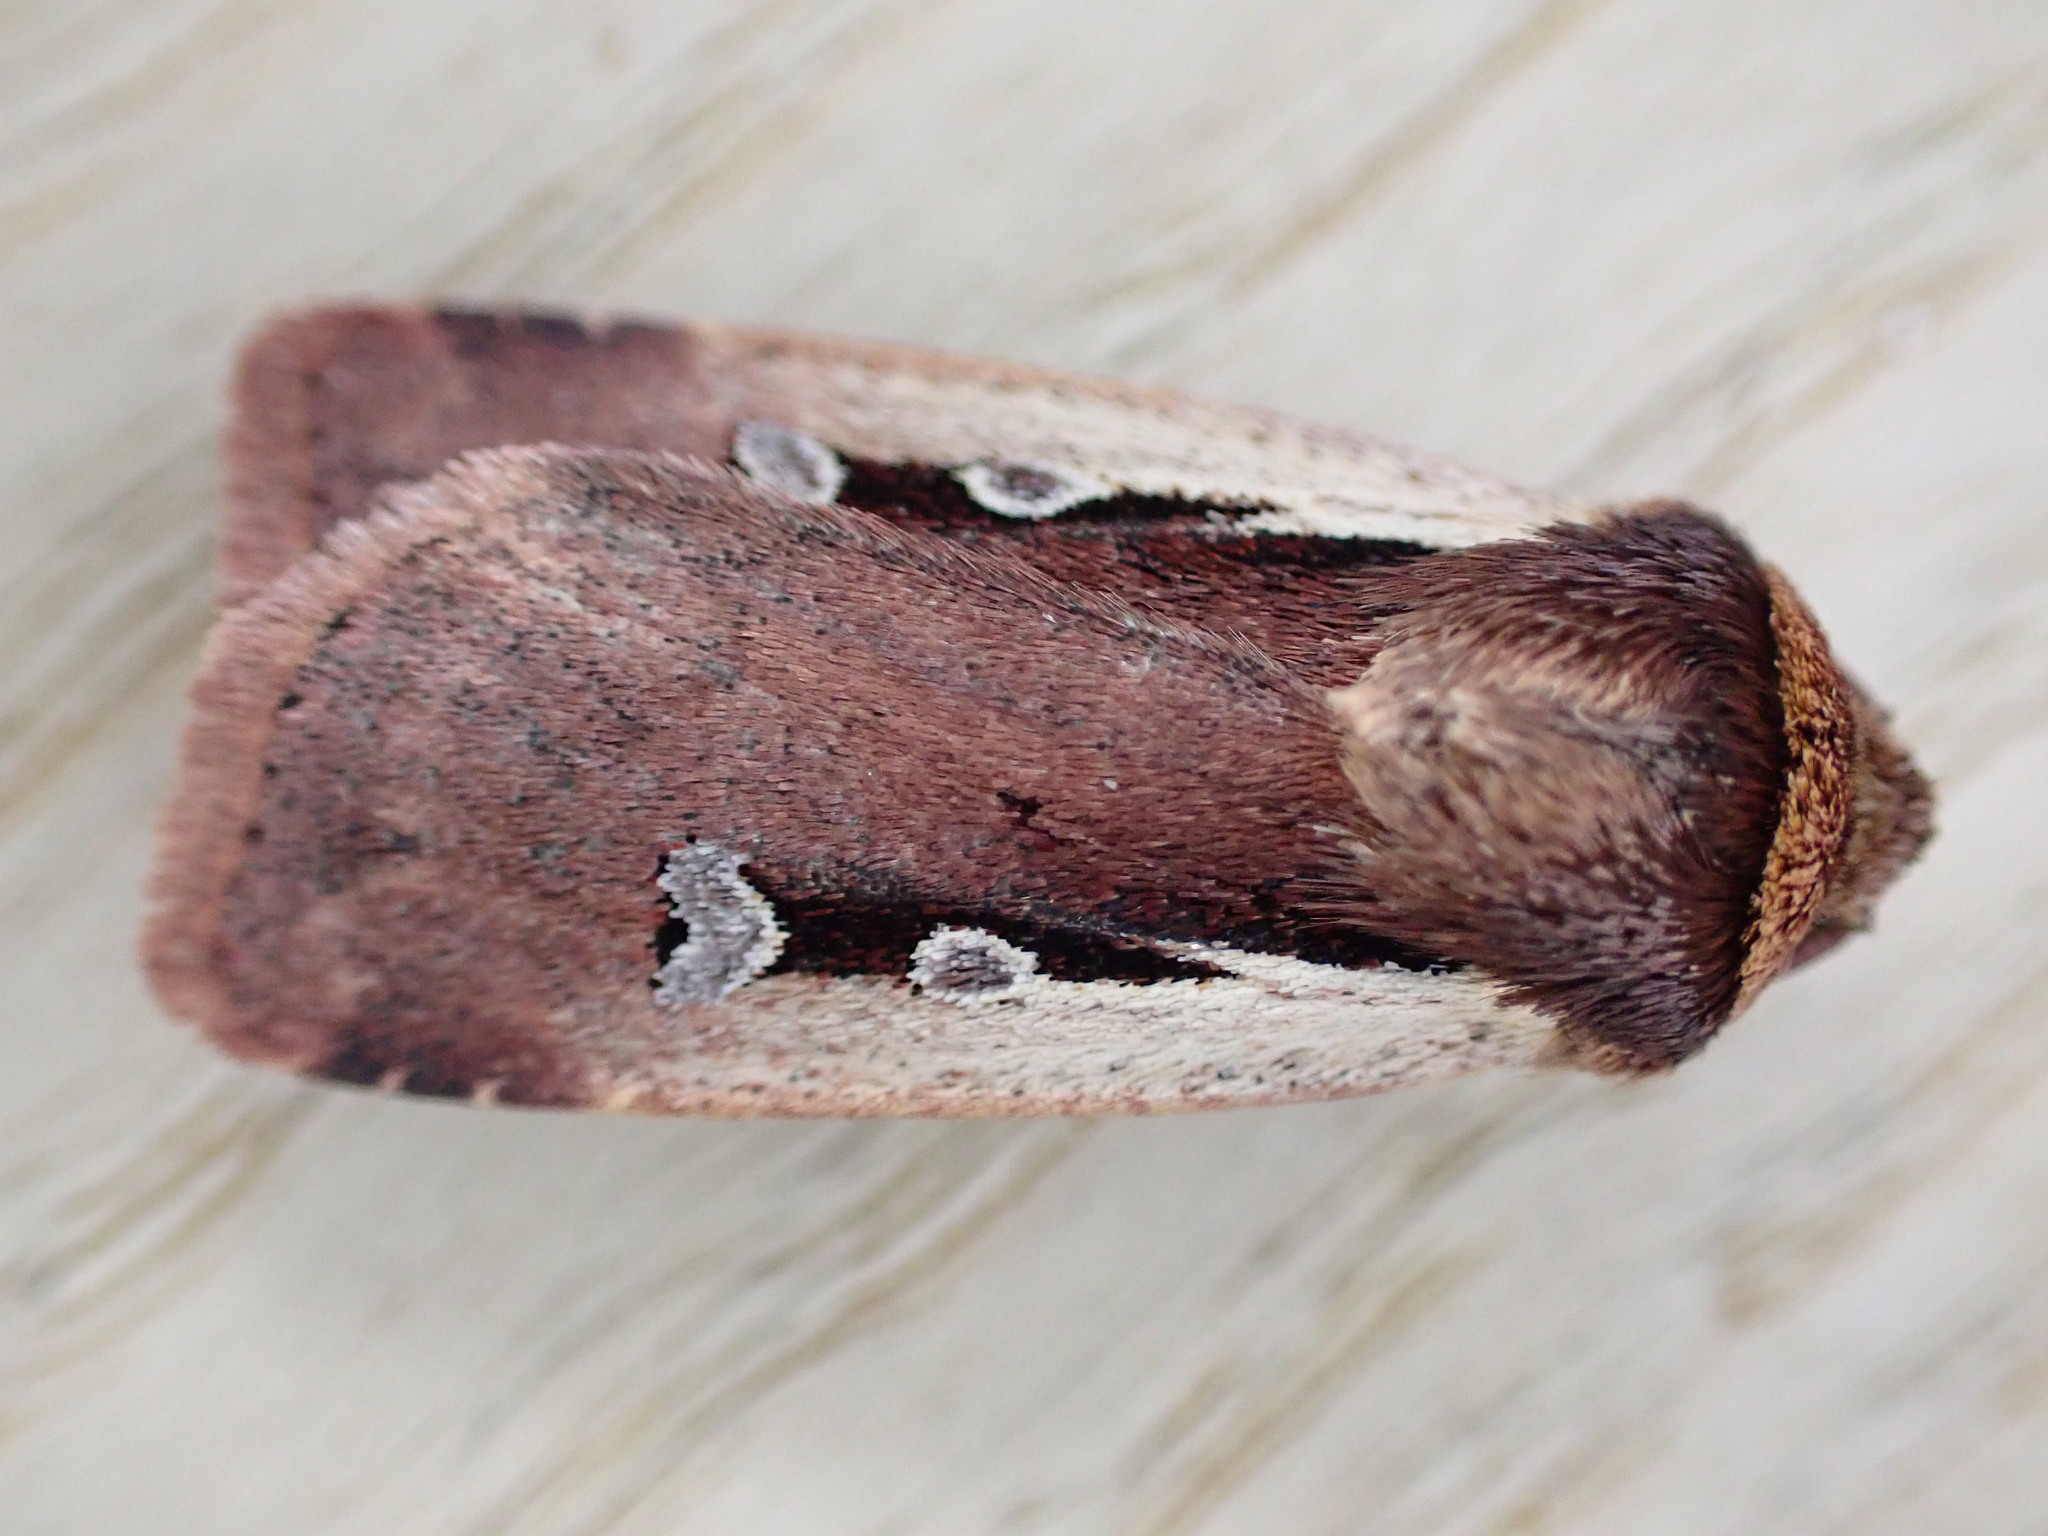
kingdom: Animalia
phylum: Arthropoda
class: Insecta
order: Lepidoptera
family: Noctuidae
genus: Ochropleura
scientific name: Ochropleura plecta
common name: Flame shoulder
